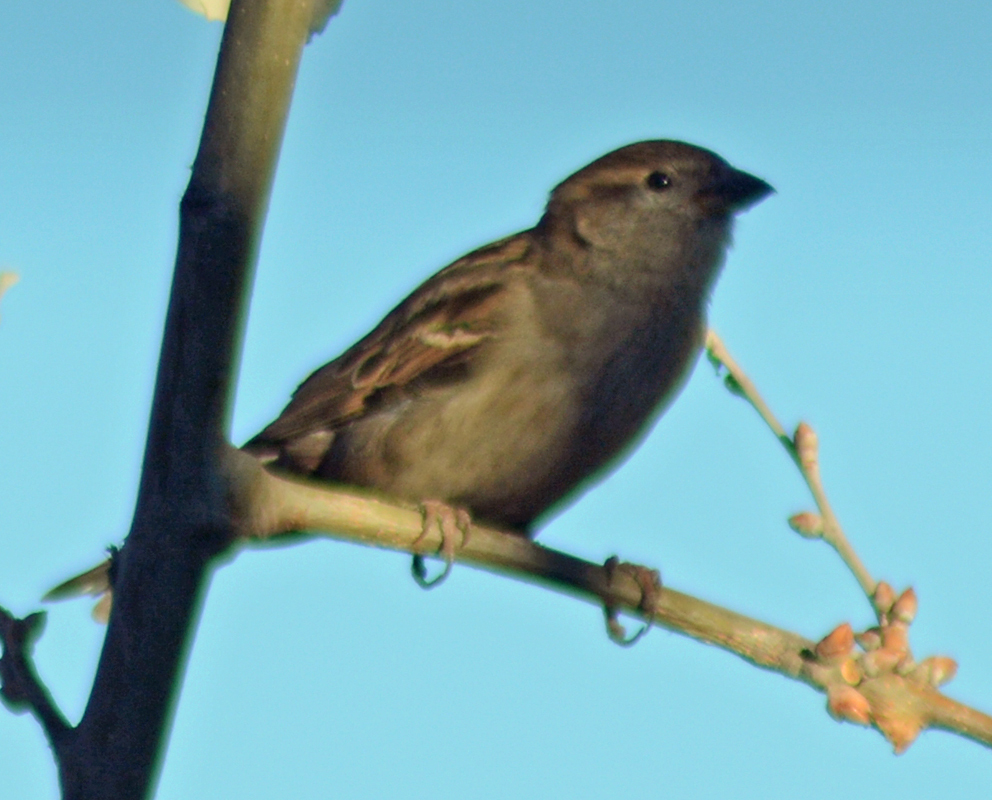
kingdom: Animalia
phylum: Chordata
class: Aves
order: Passeriformes
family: Passeridae
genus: Passer
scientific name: Passer domesticus
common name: House sparrow
